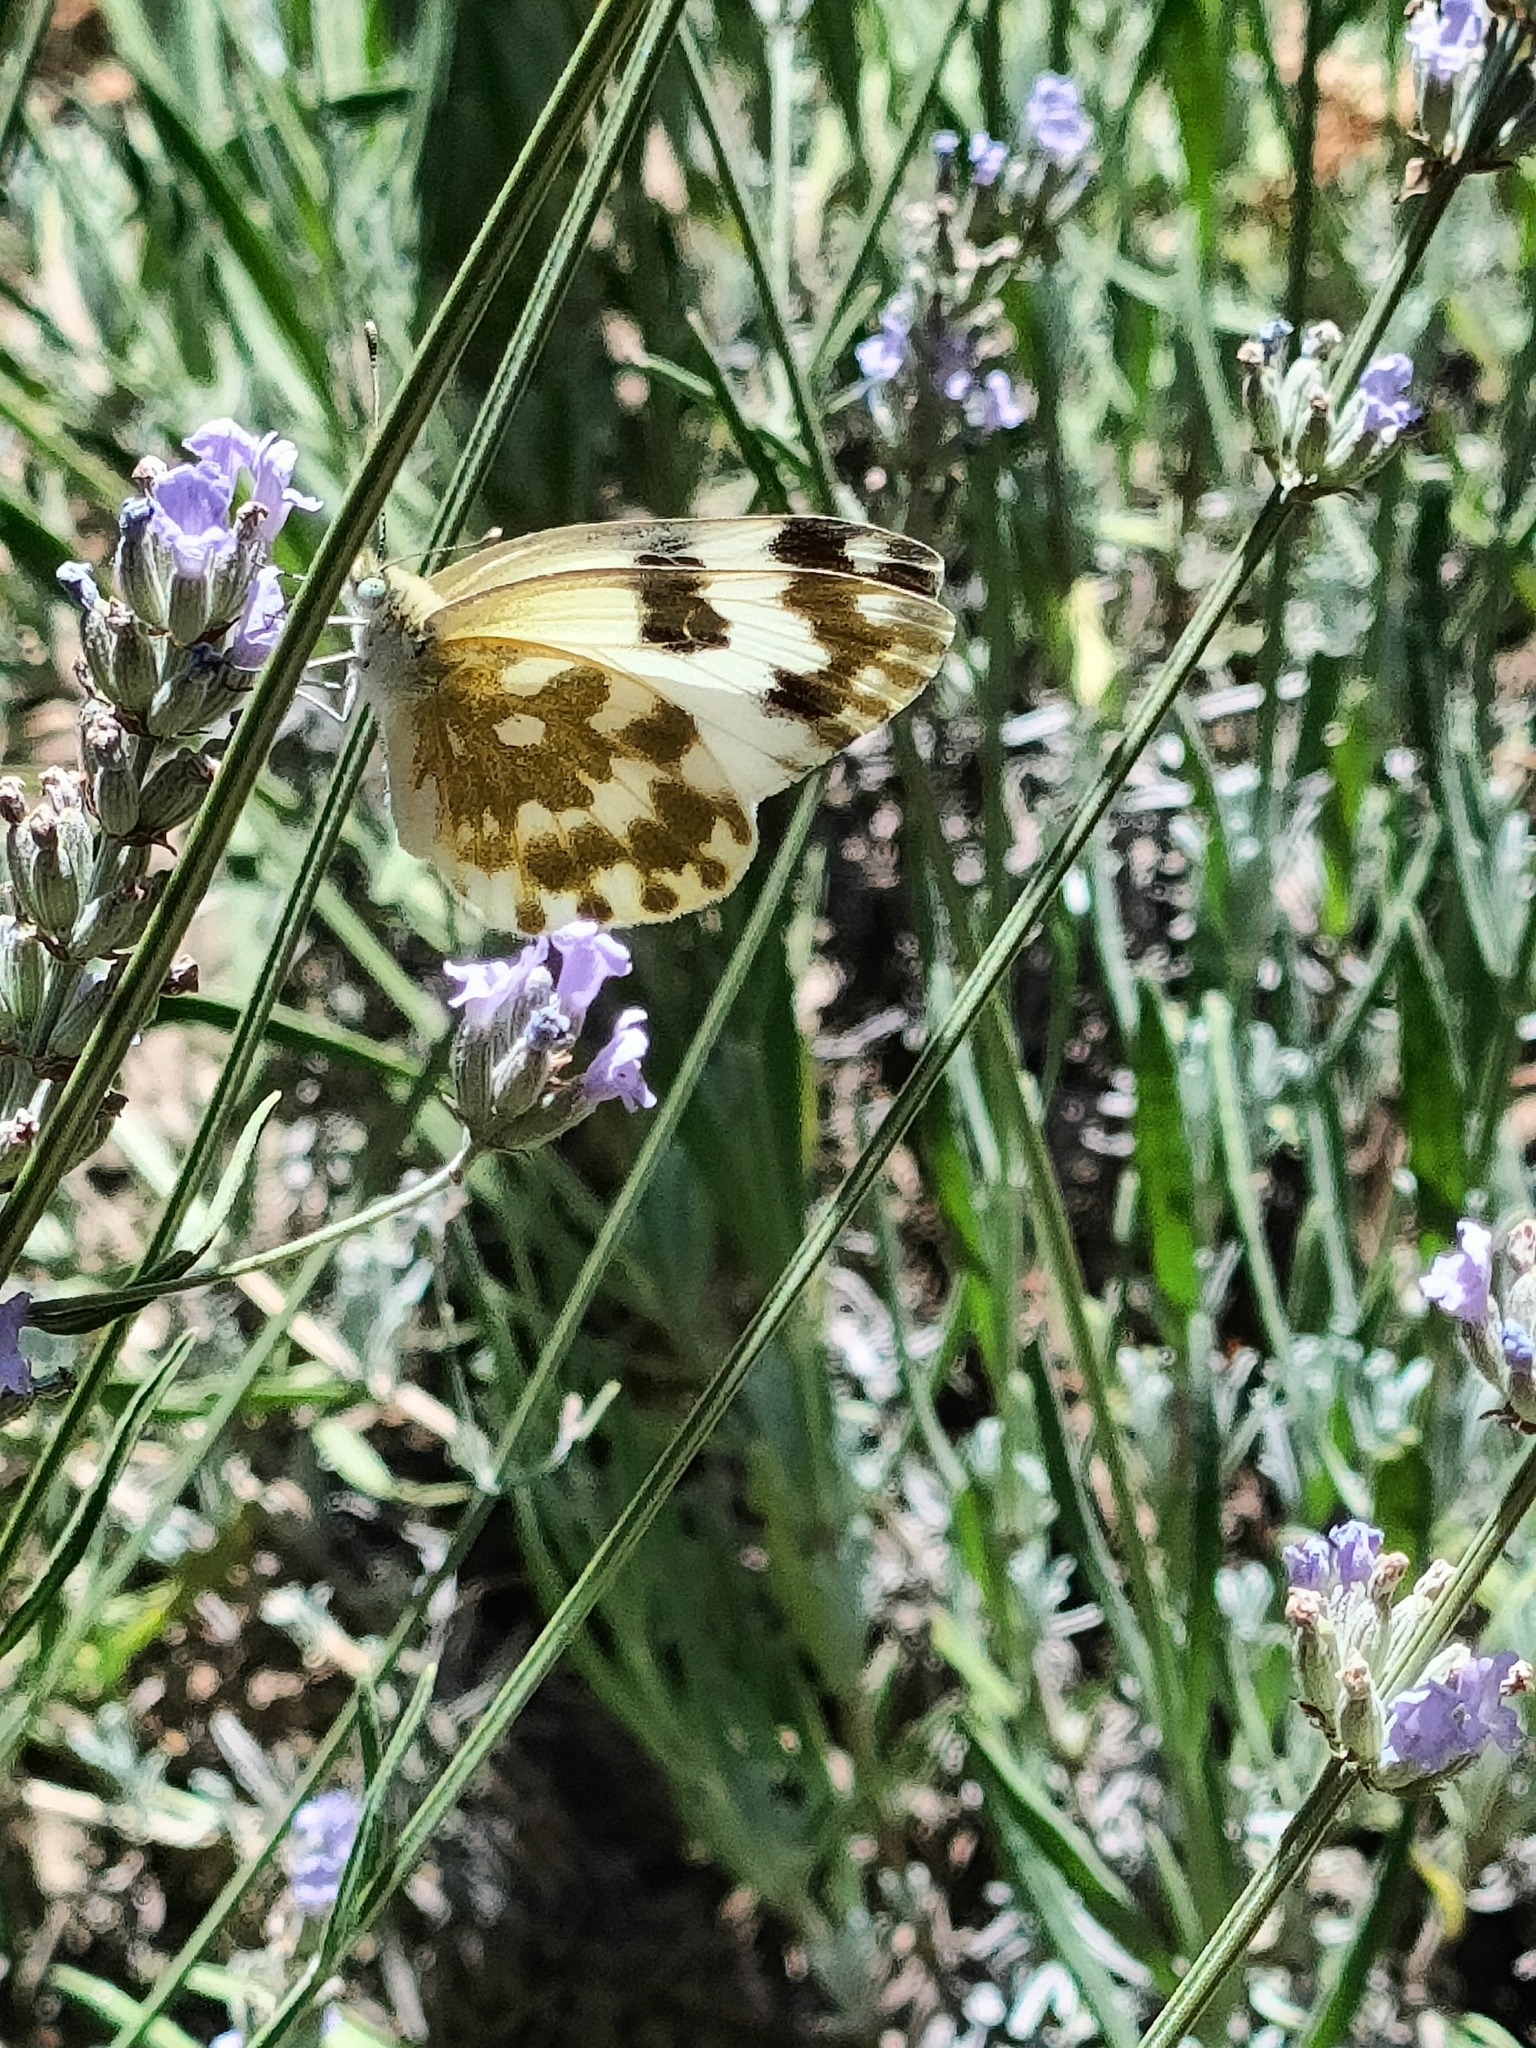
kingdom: Animalia
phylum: Arthropoda
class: Insecta
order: Lepidoptera
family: Pieridae
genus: Pontia
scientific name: Pontia edusa
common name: Eastern bath white
